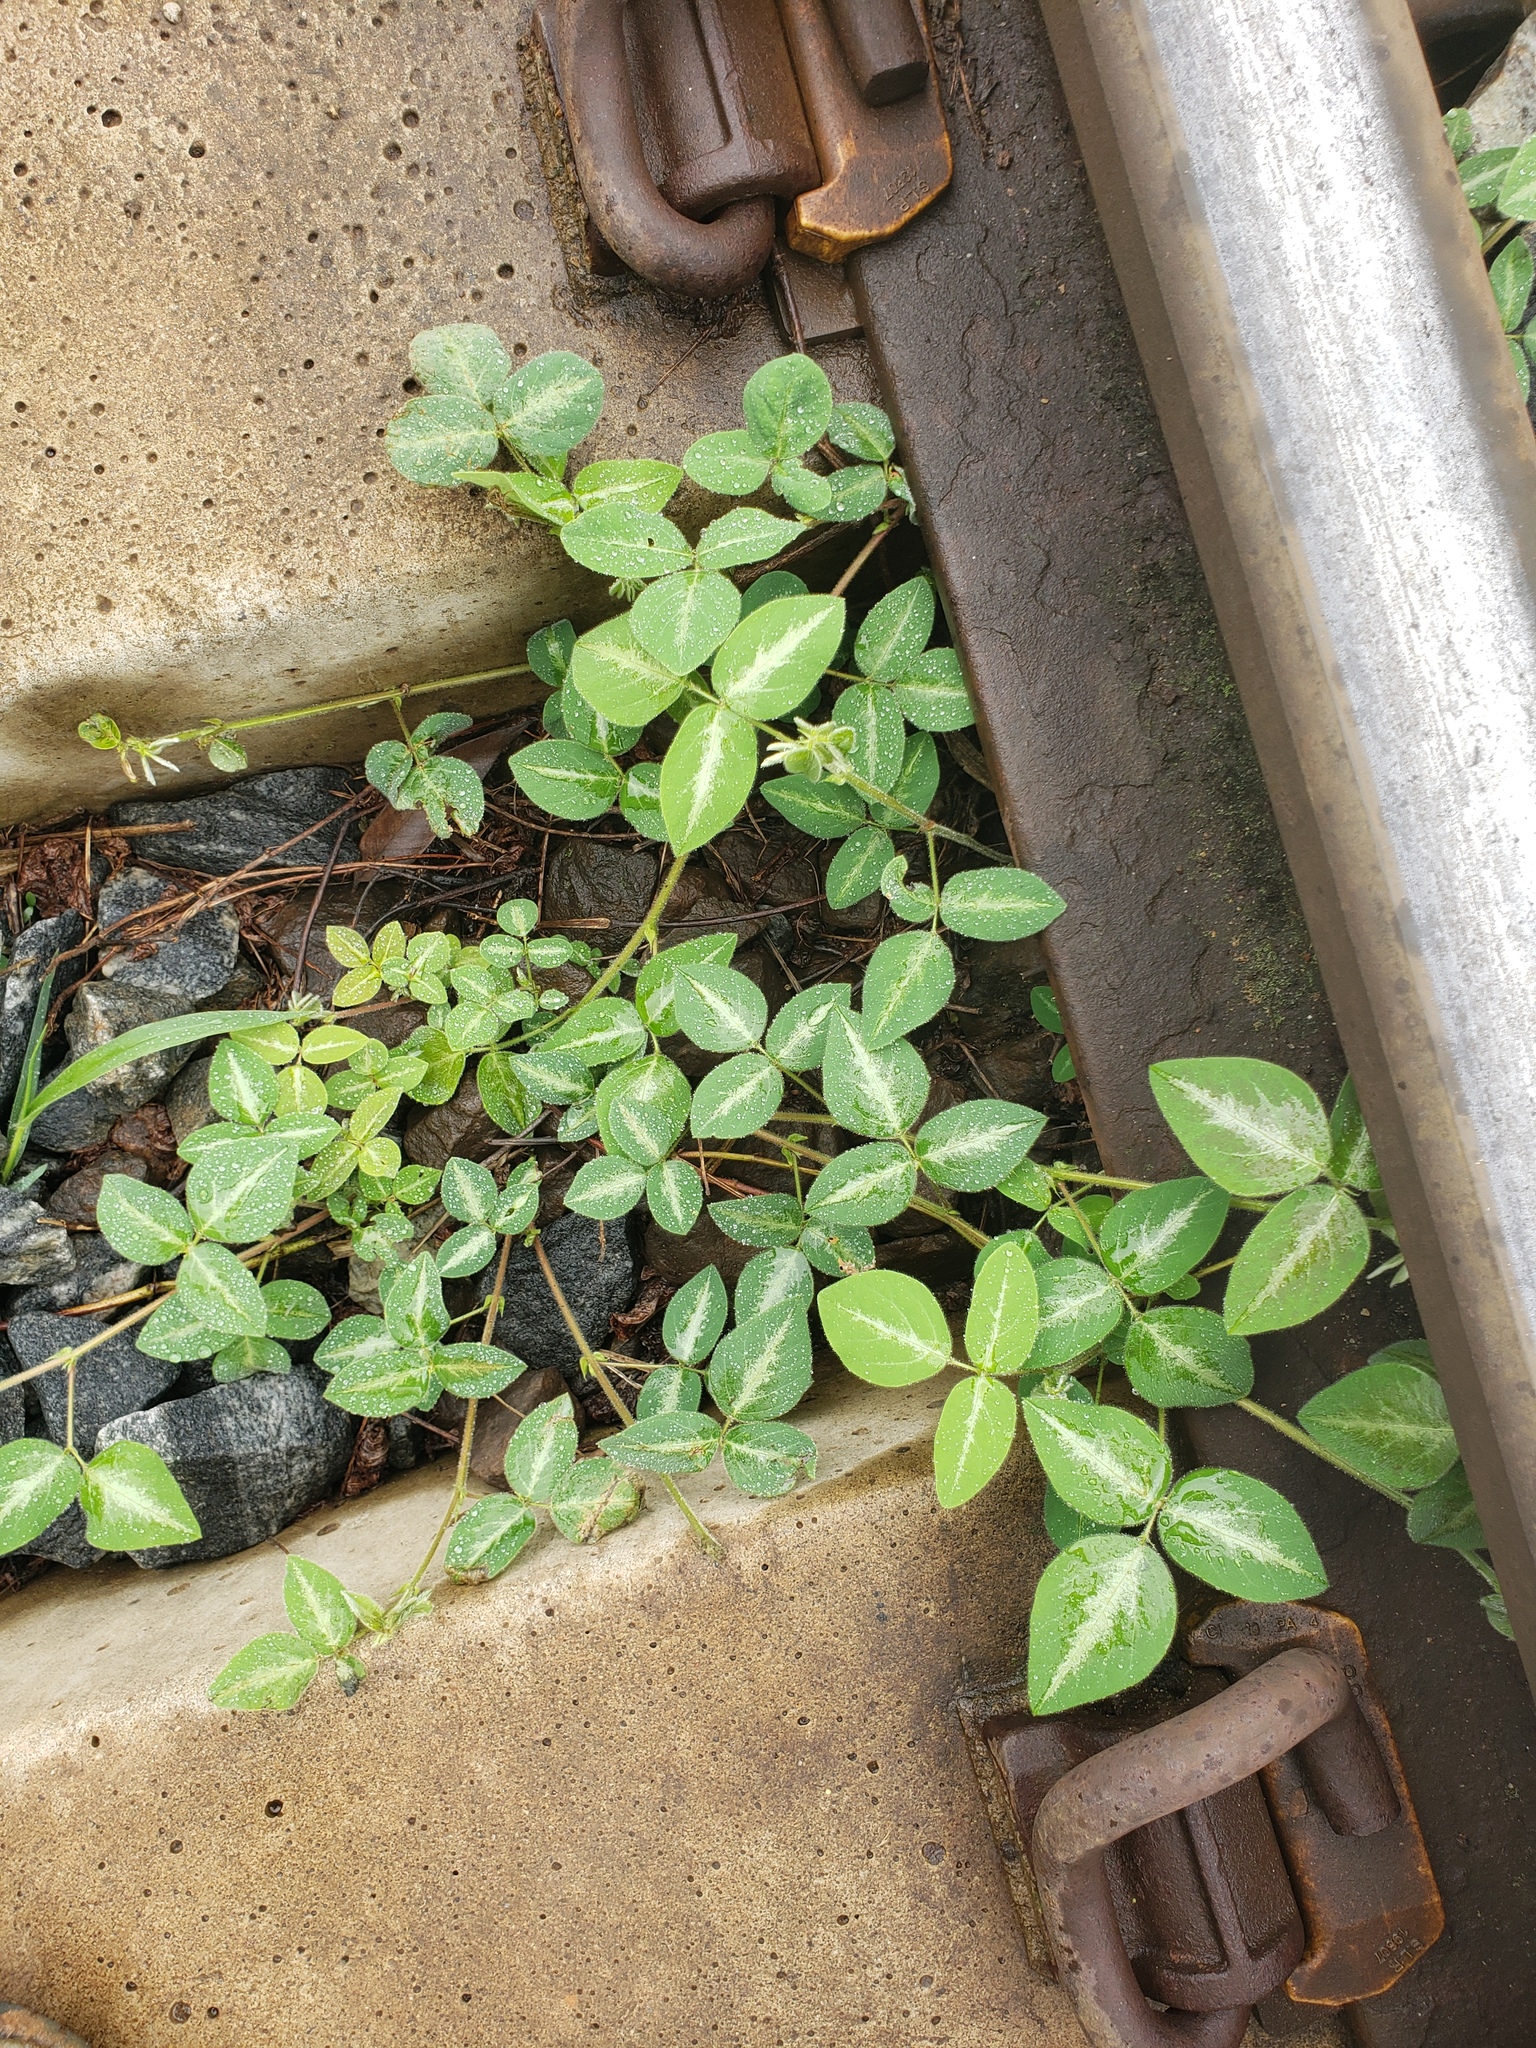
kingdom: Plantae
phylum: Tracheophyta
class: Magnoliopsida
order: Fabales
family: Fabaceae
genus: Desmodium
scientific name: Desmodium uncinatum
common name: Silverleaf desmodium
